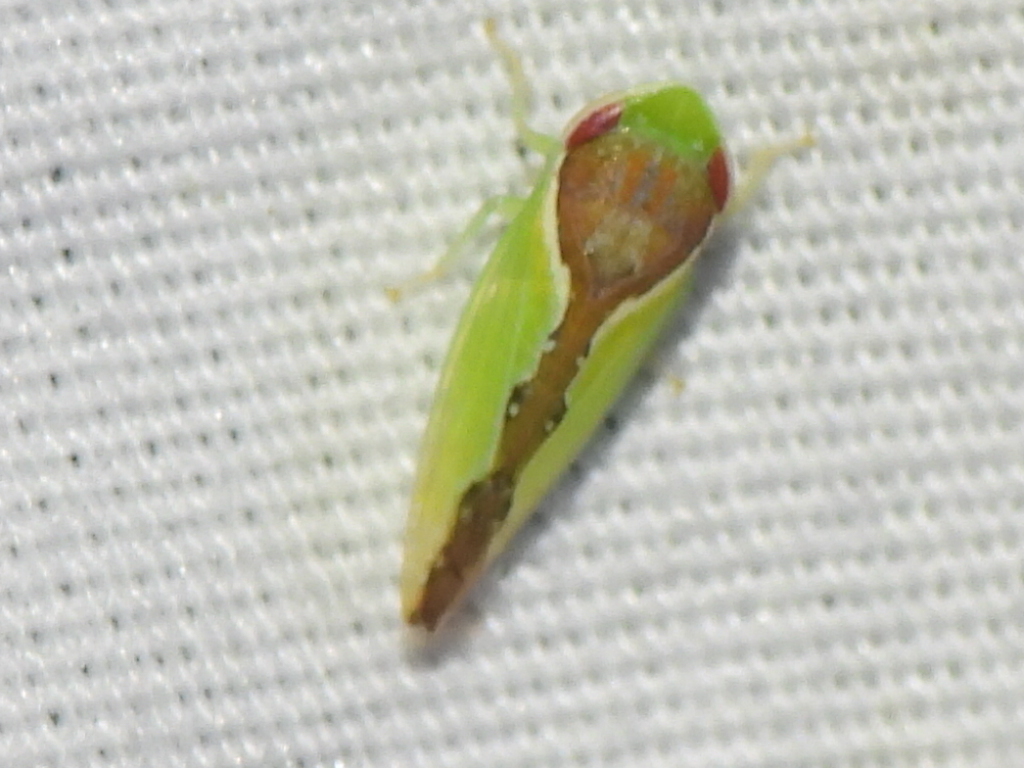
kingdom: Animalia
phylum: Arthropoda
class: Insecta
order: Hemiptera
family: Cicadellidae
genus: Omansobara ing
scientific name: Omansobara ing Omansobara palliolata
